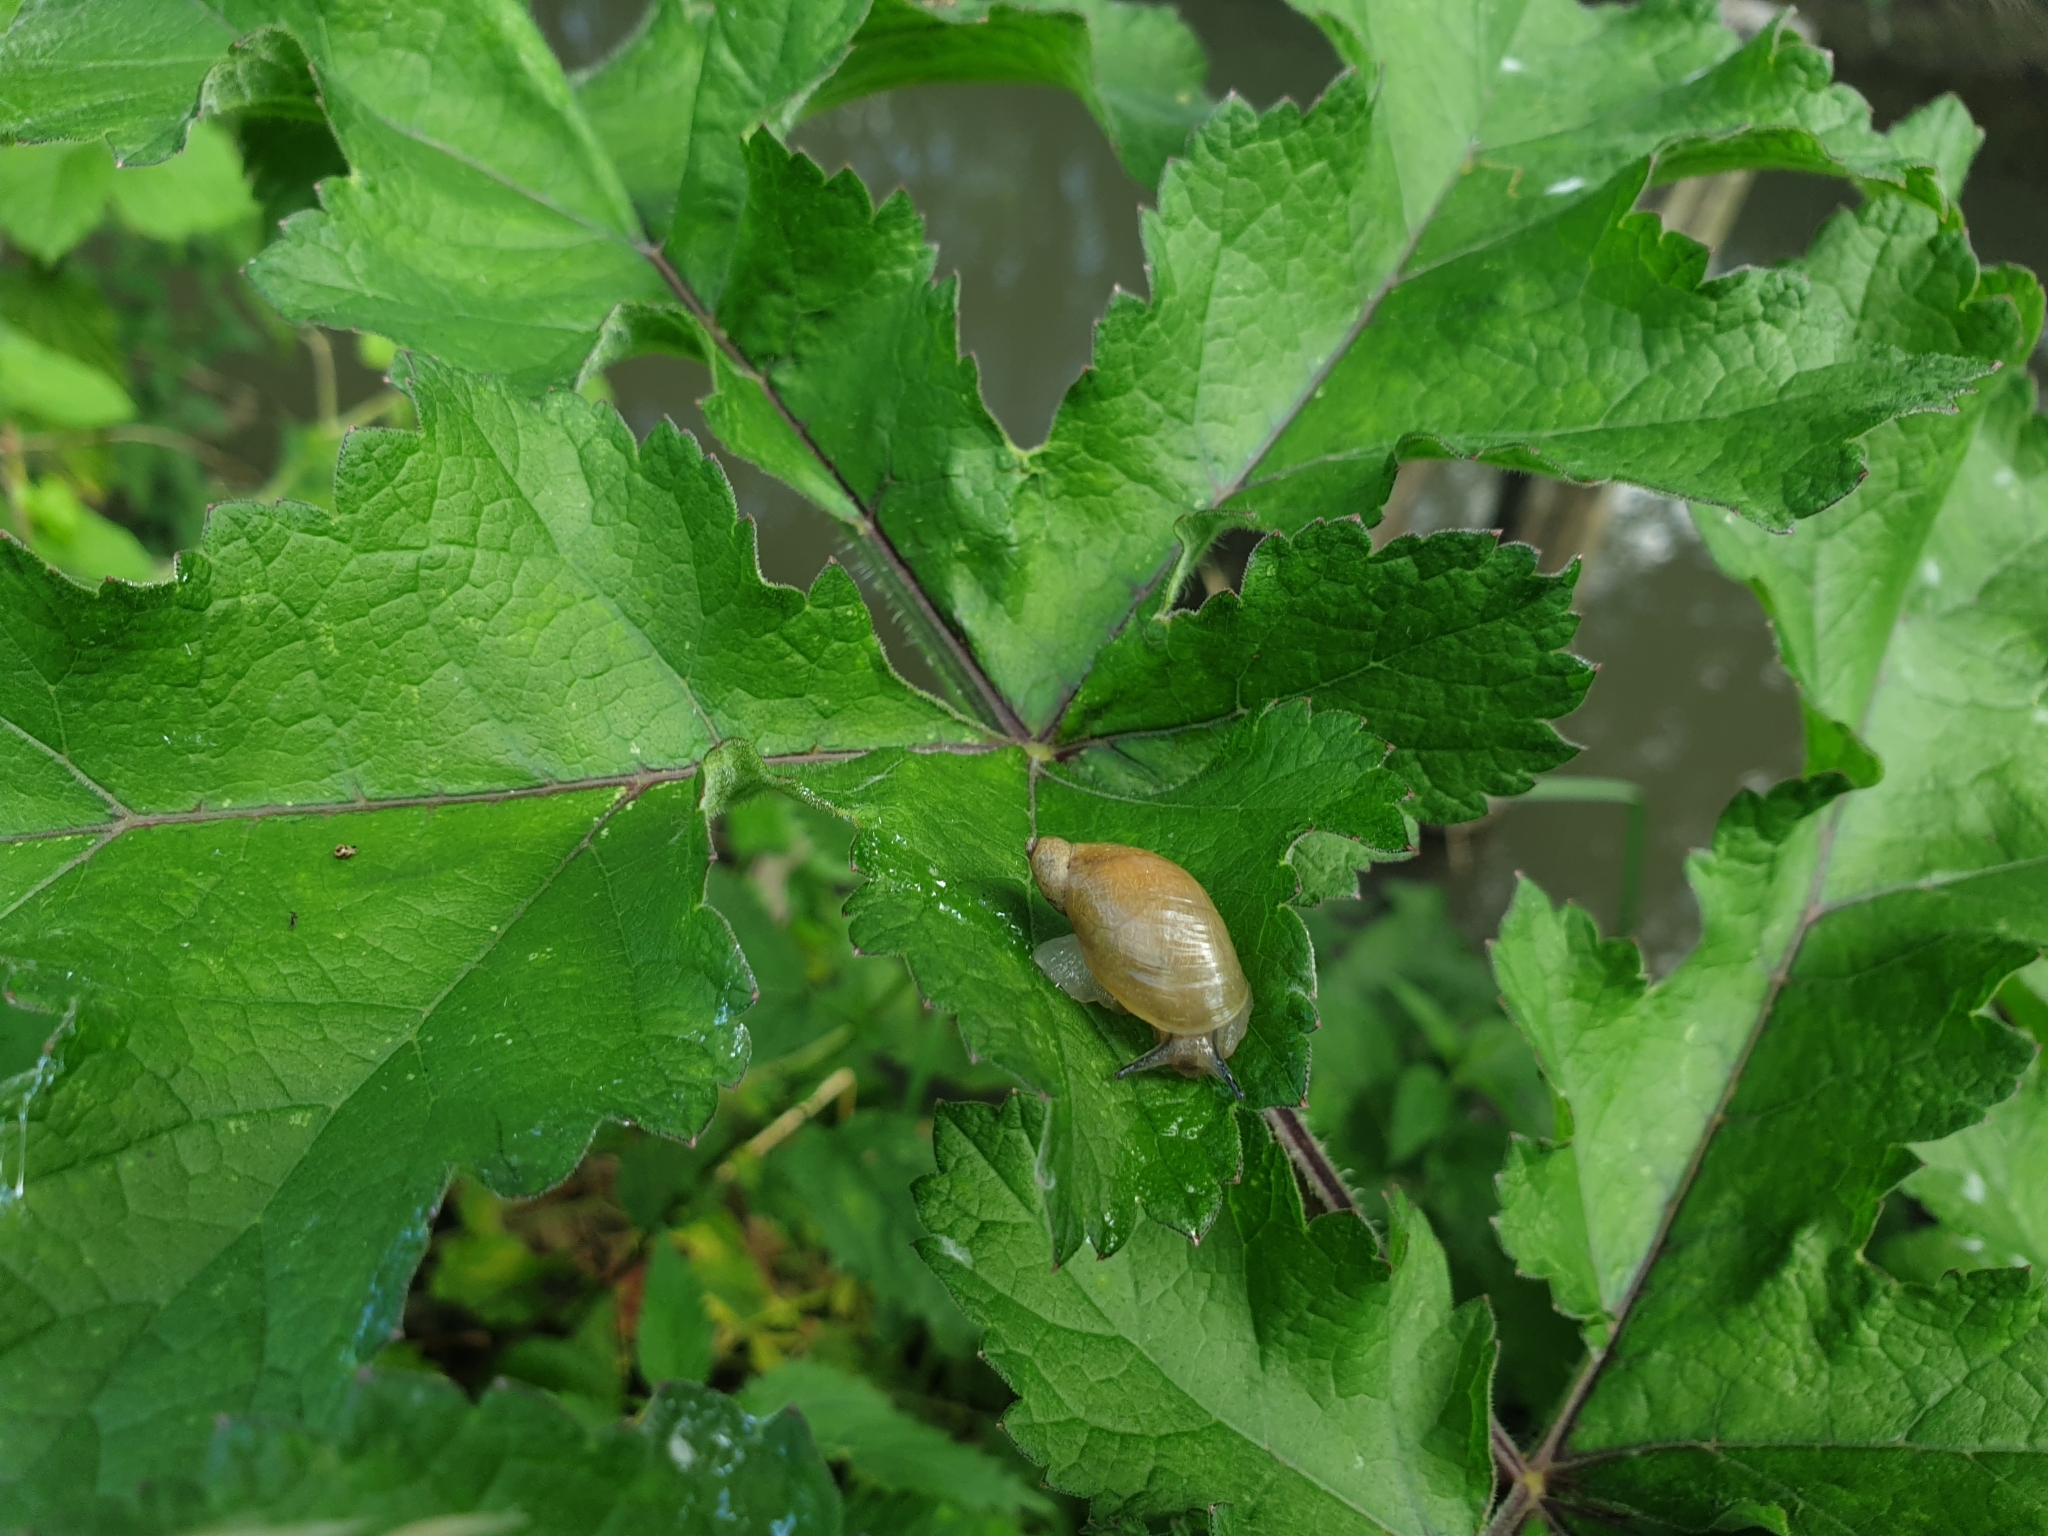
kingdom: Animalia
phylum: Mollusca
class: Gastropoda
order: Stylommatophora
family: Succineidae
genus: Succinea
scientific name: Succinea putris
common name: European ambersnail
